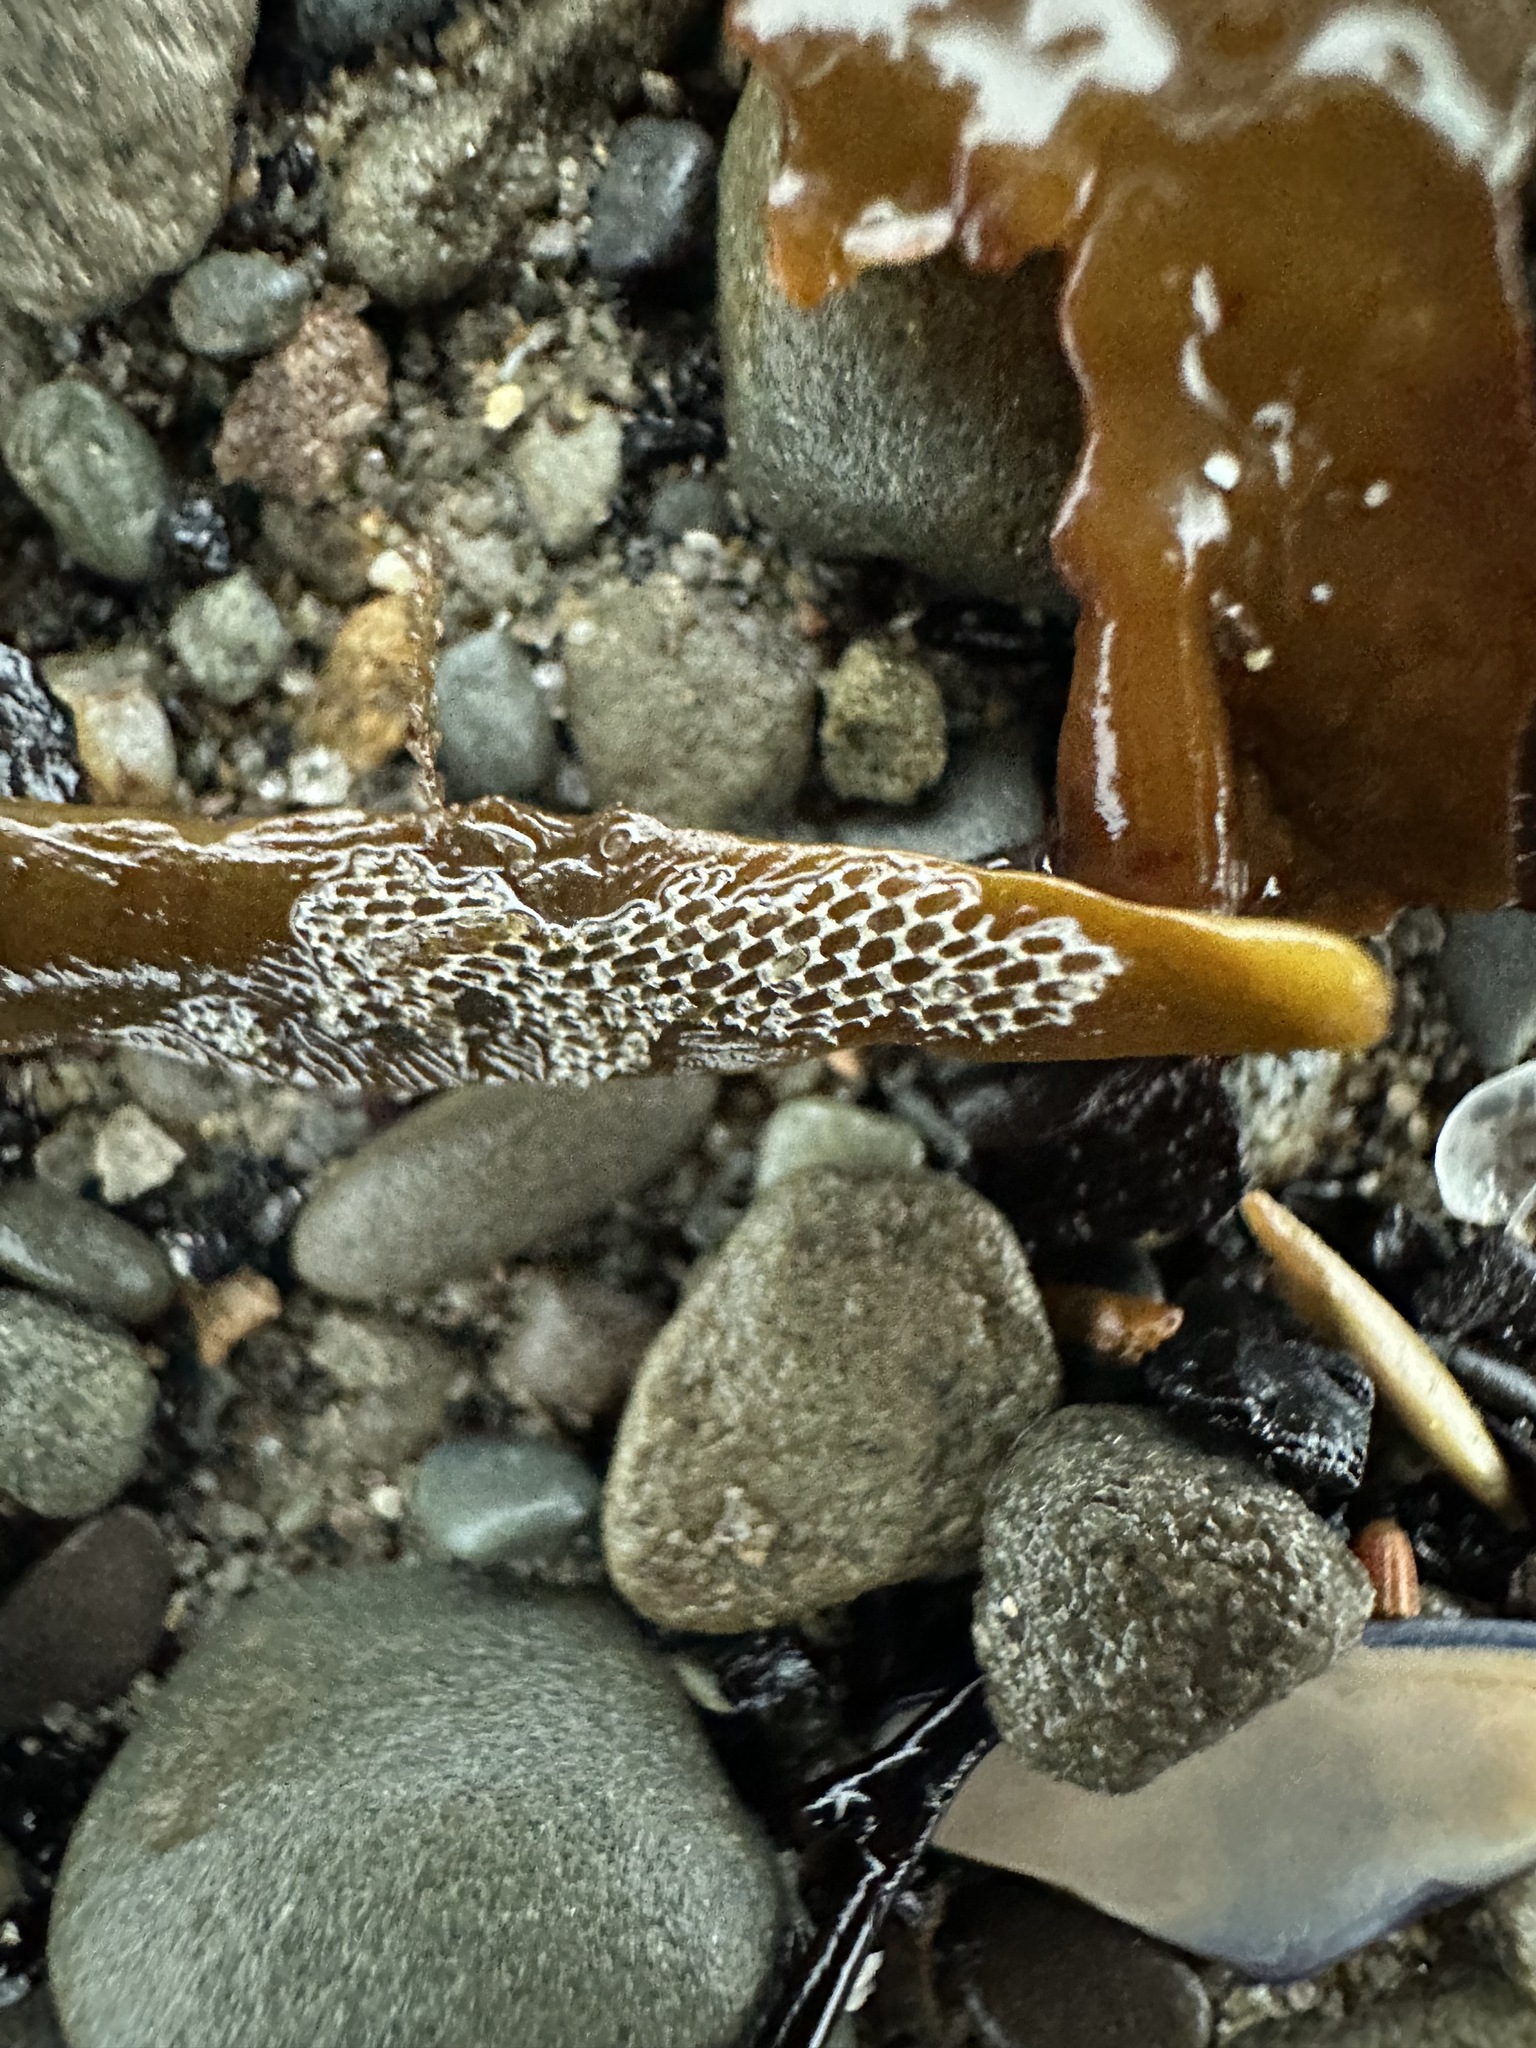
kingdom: Animalia
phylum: Bryozoa
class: Gymnolaemata
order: Cheilostomatida
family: Membraniporidae
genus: Membranipora
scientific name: Membranipora membranacea
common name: Sea mat
